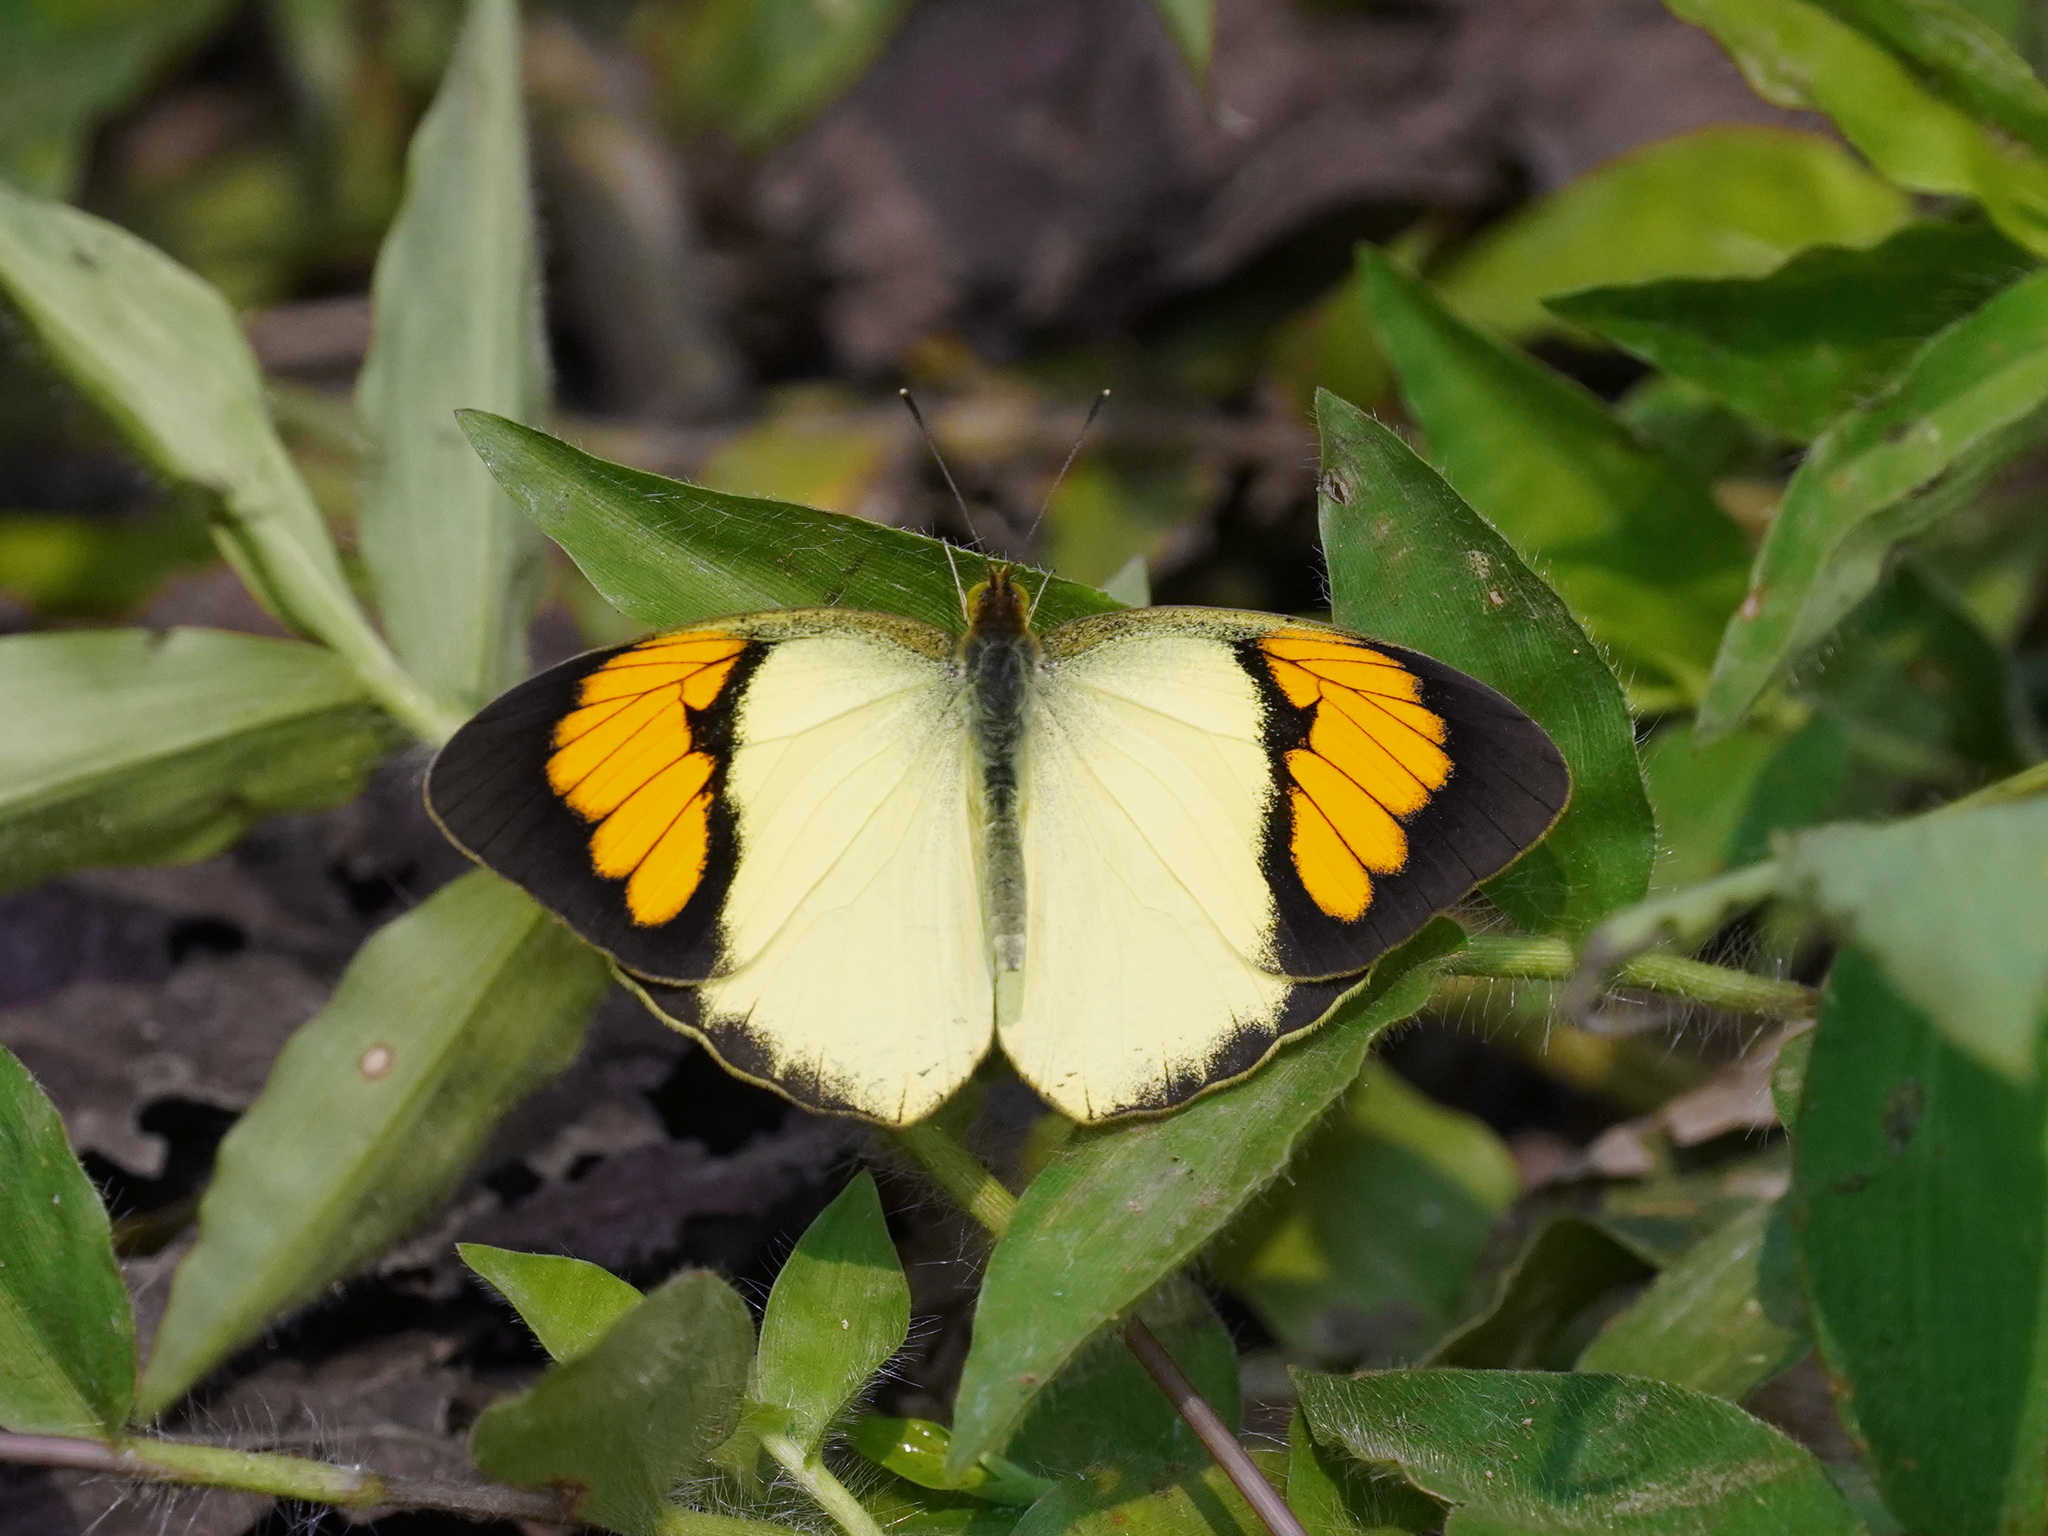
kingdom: Animalia
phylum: Arthropoda
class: Insecta
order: Lepidoptera
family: Pieridae
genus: Ixias
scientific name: Ixias pyrene
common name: Yellow orange tip
